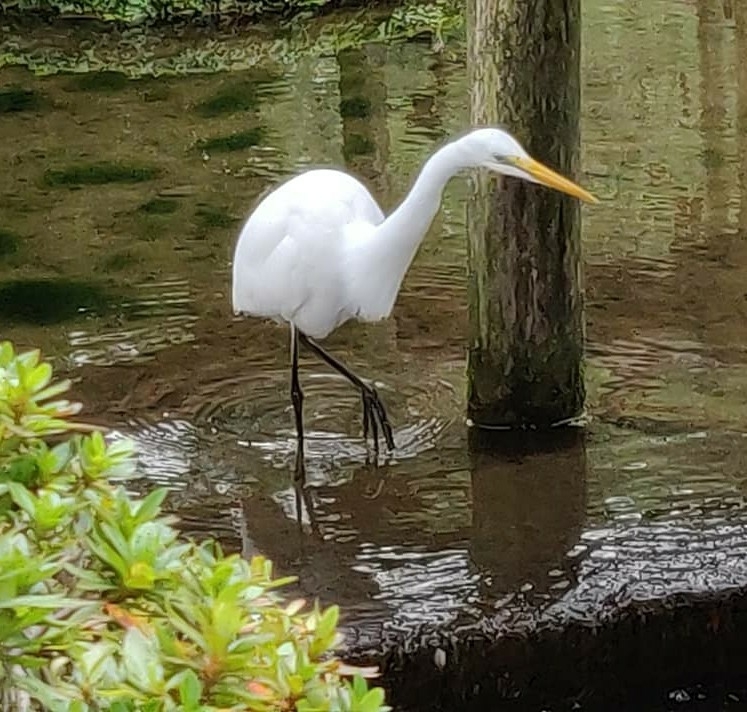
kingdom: Animalia
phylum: Chordata
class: Aves
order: Pelecaniformes
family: Ardeidae
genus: Ardea
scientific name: Ardea alba
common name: Great egret
